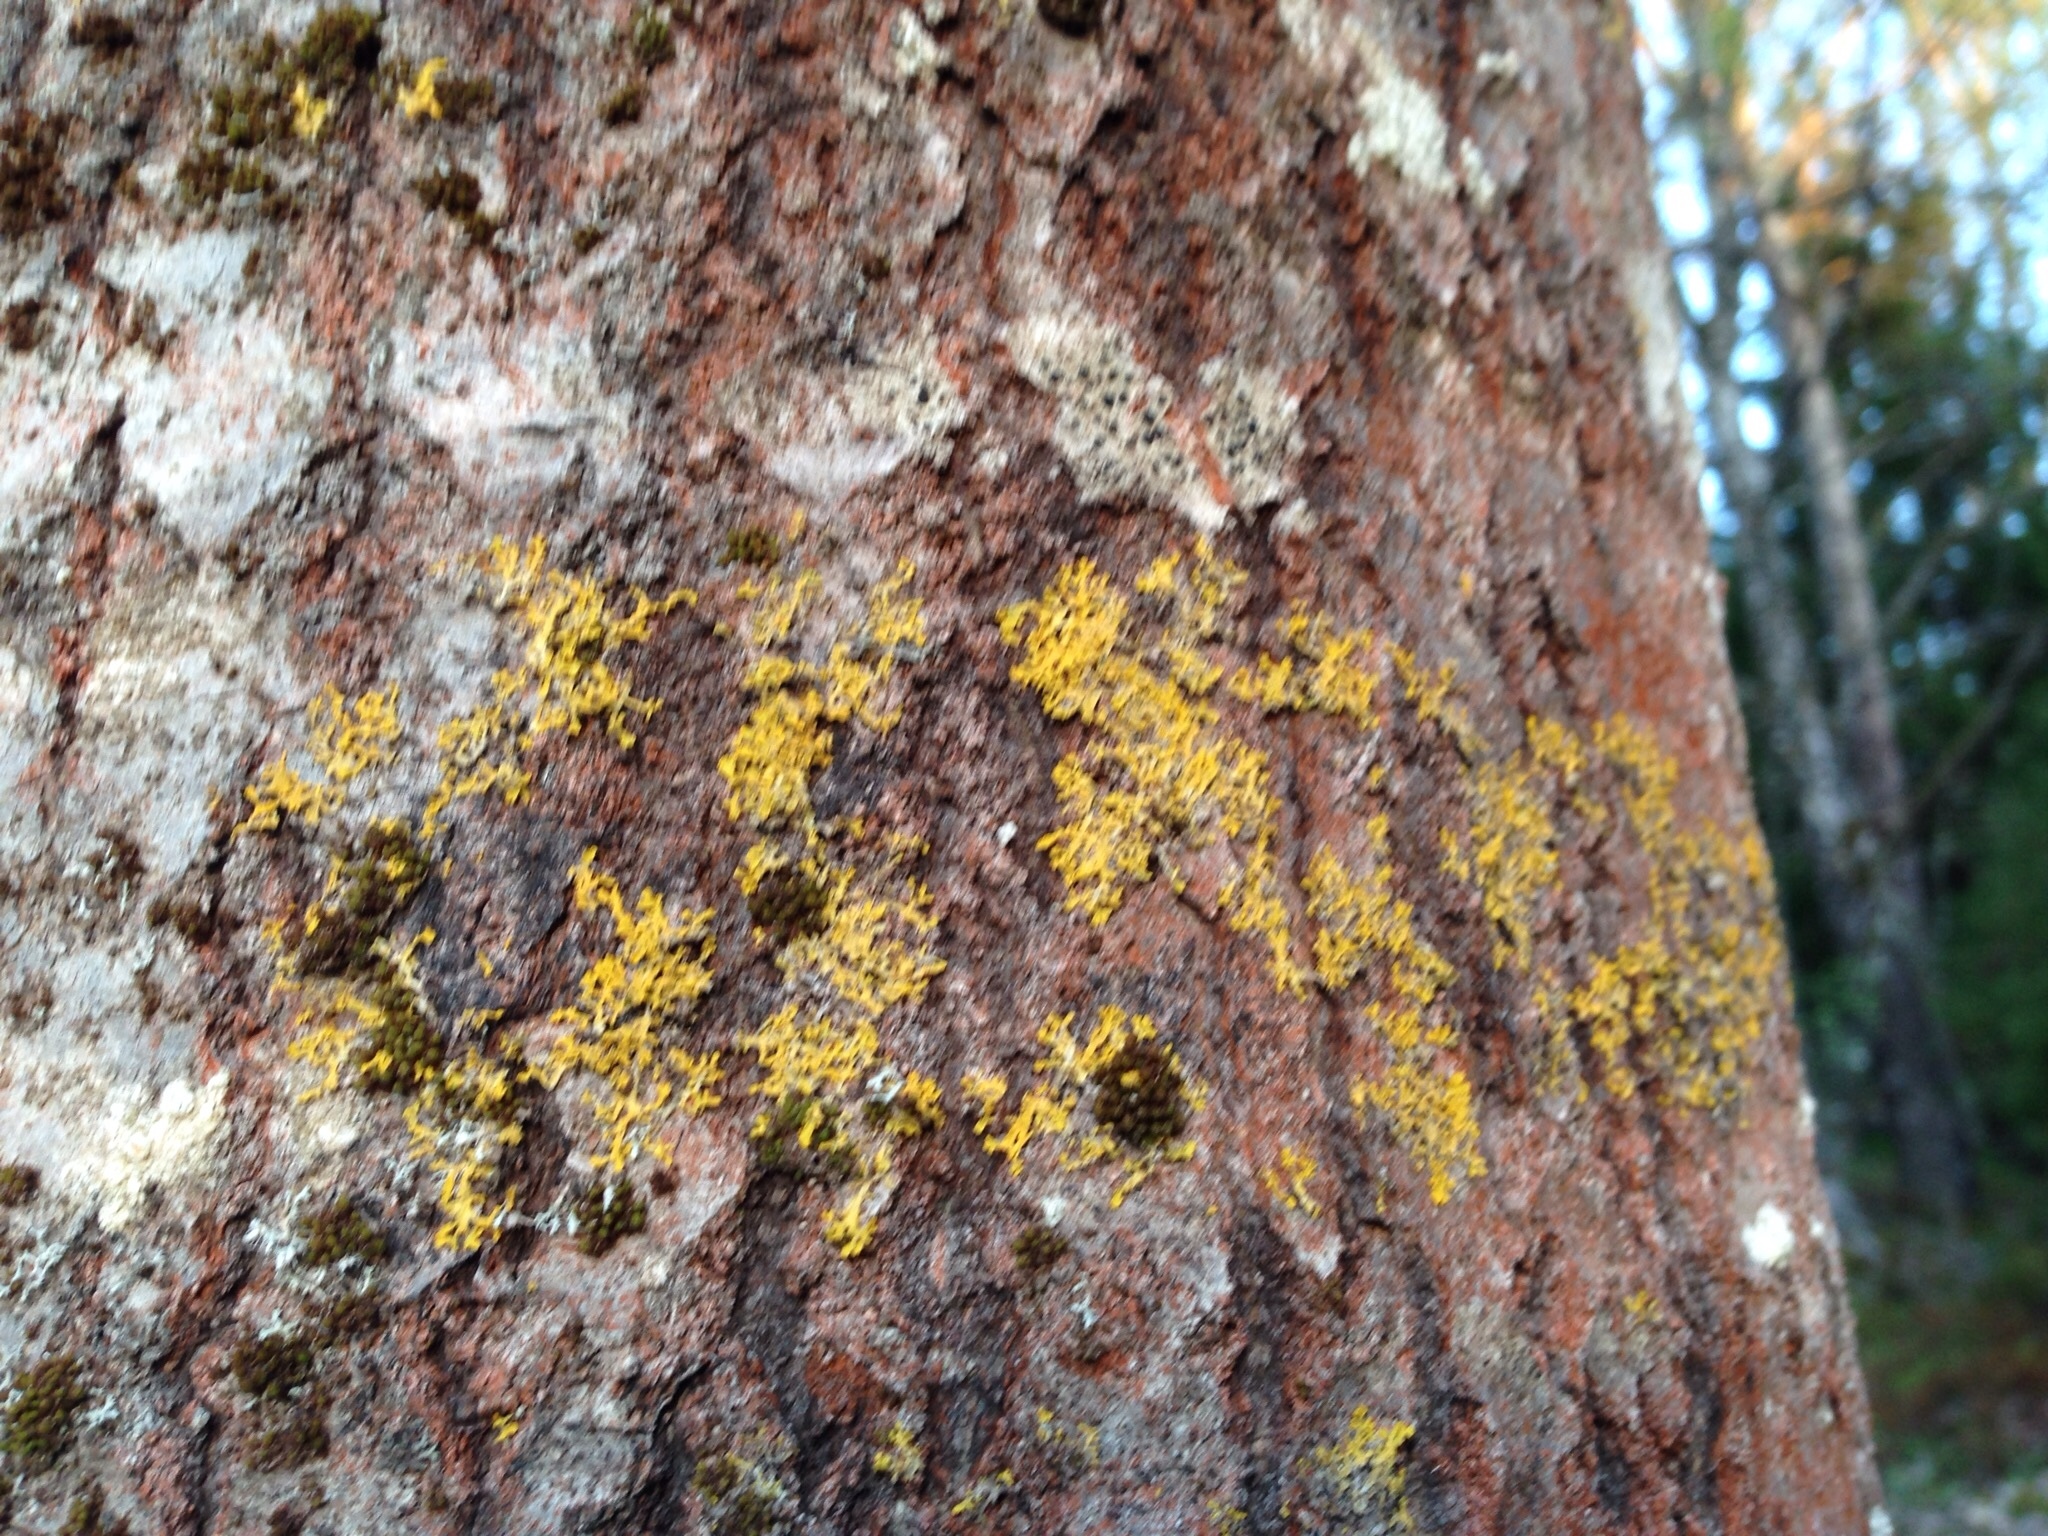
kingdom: Fungi
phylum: Ascomycota
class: Lecanoromycetes
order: Teloschistales
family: Teloschistaceae
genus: Xanthoria
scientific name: Xanthoria parietina
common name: Common orange lichen
